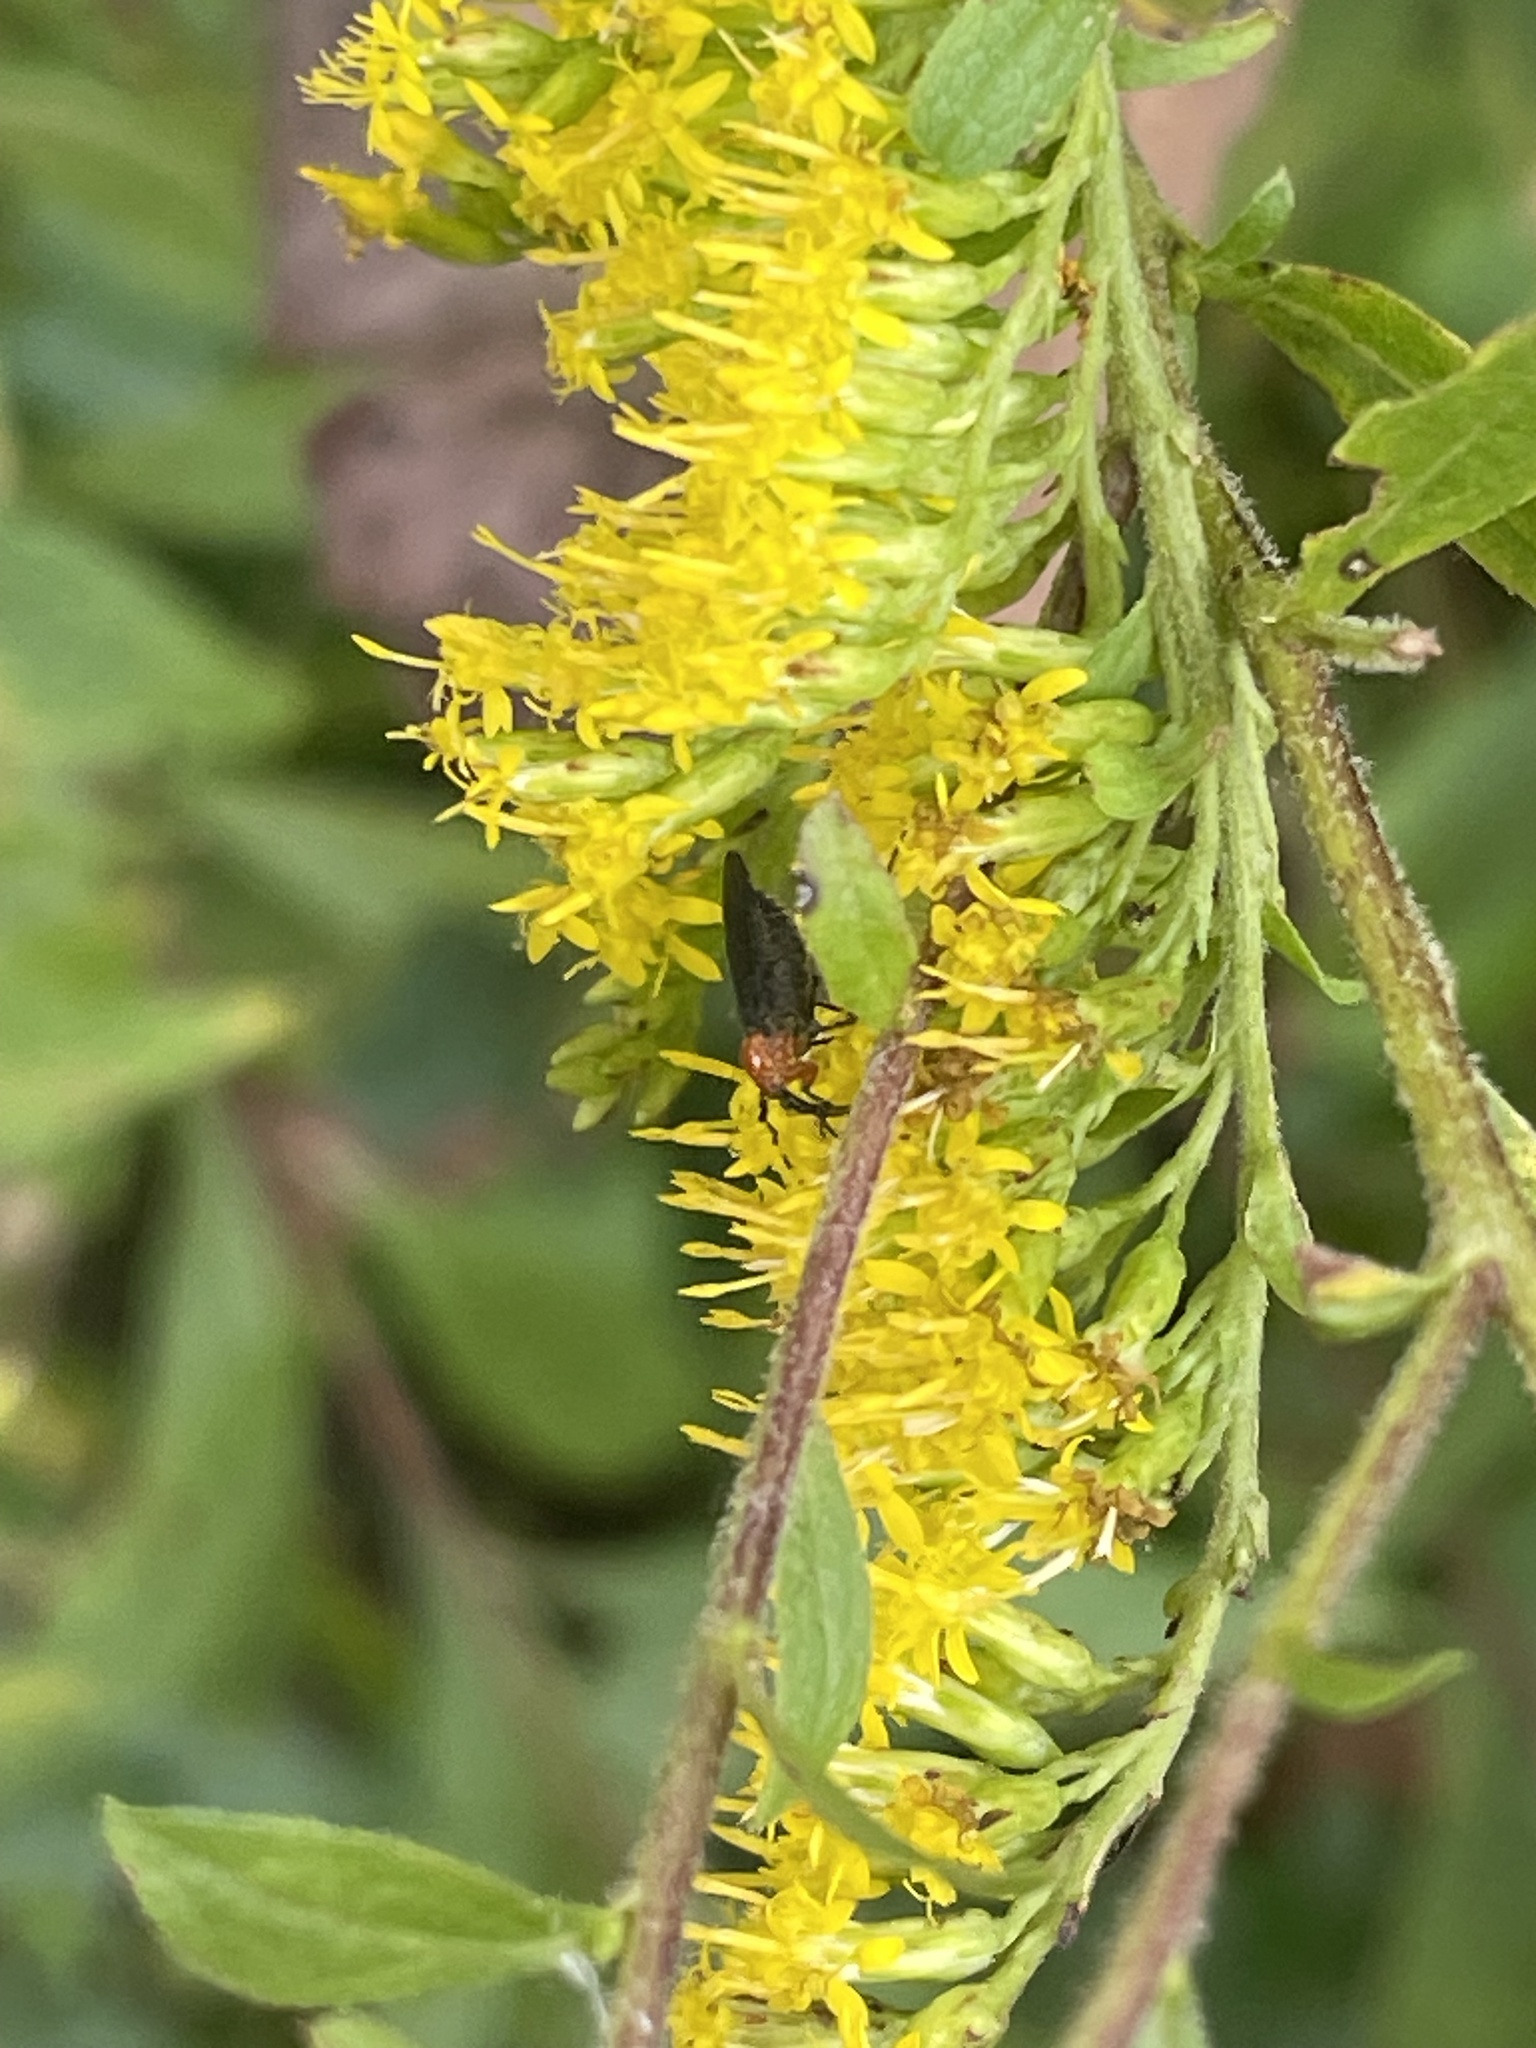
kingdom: Animalia
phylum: Arthropoda
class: Insecta
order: Diptera
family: Bibionidae
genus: Dilophus
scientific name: Dilophus spinipes
